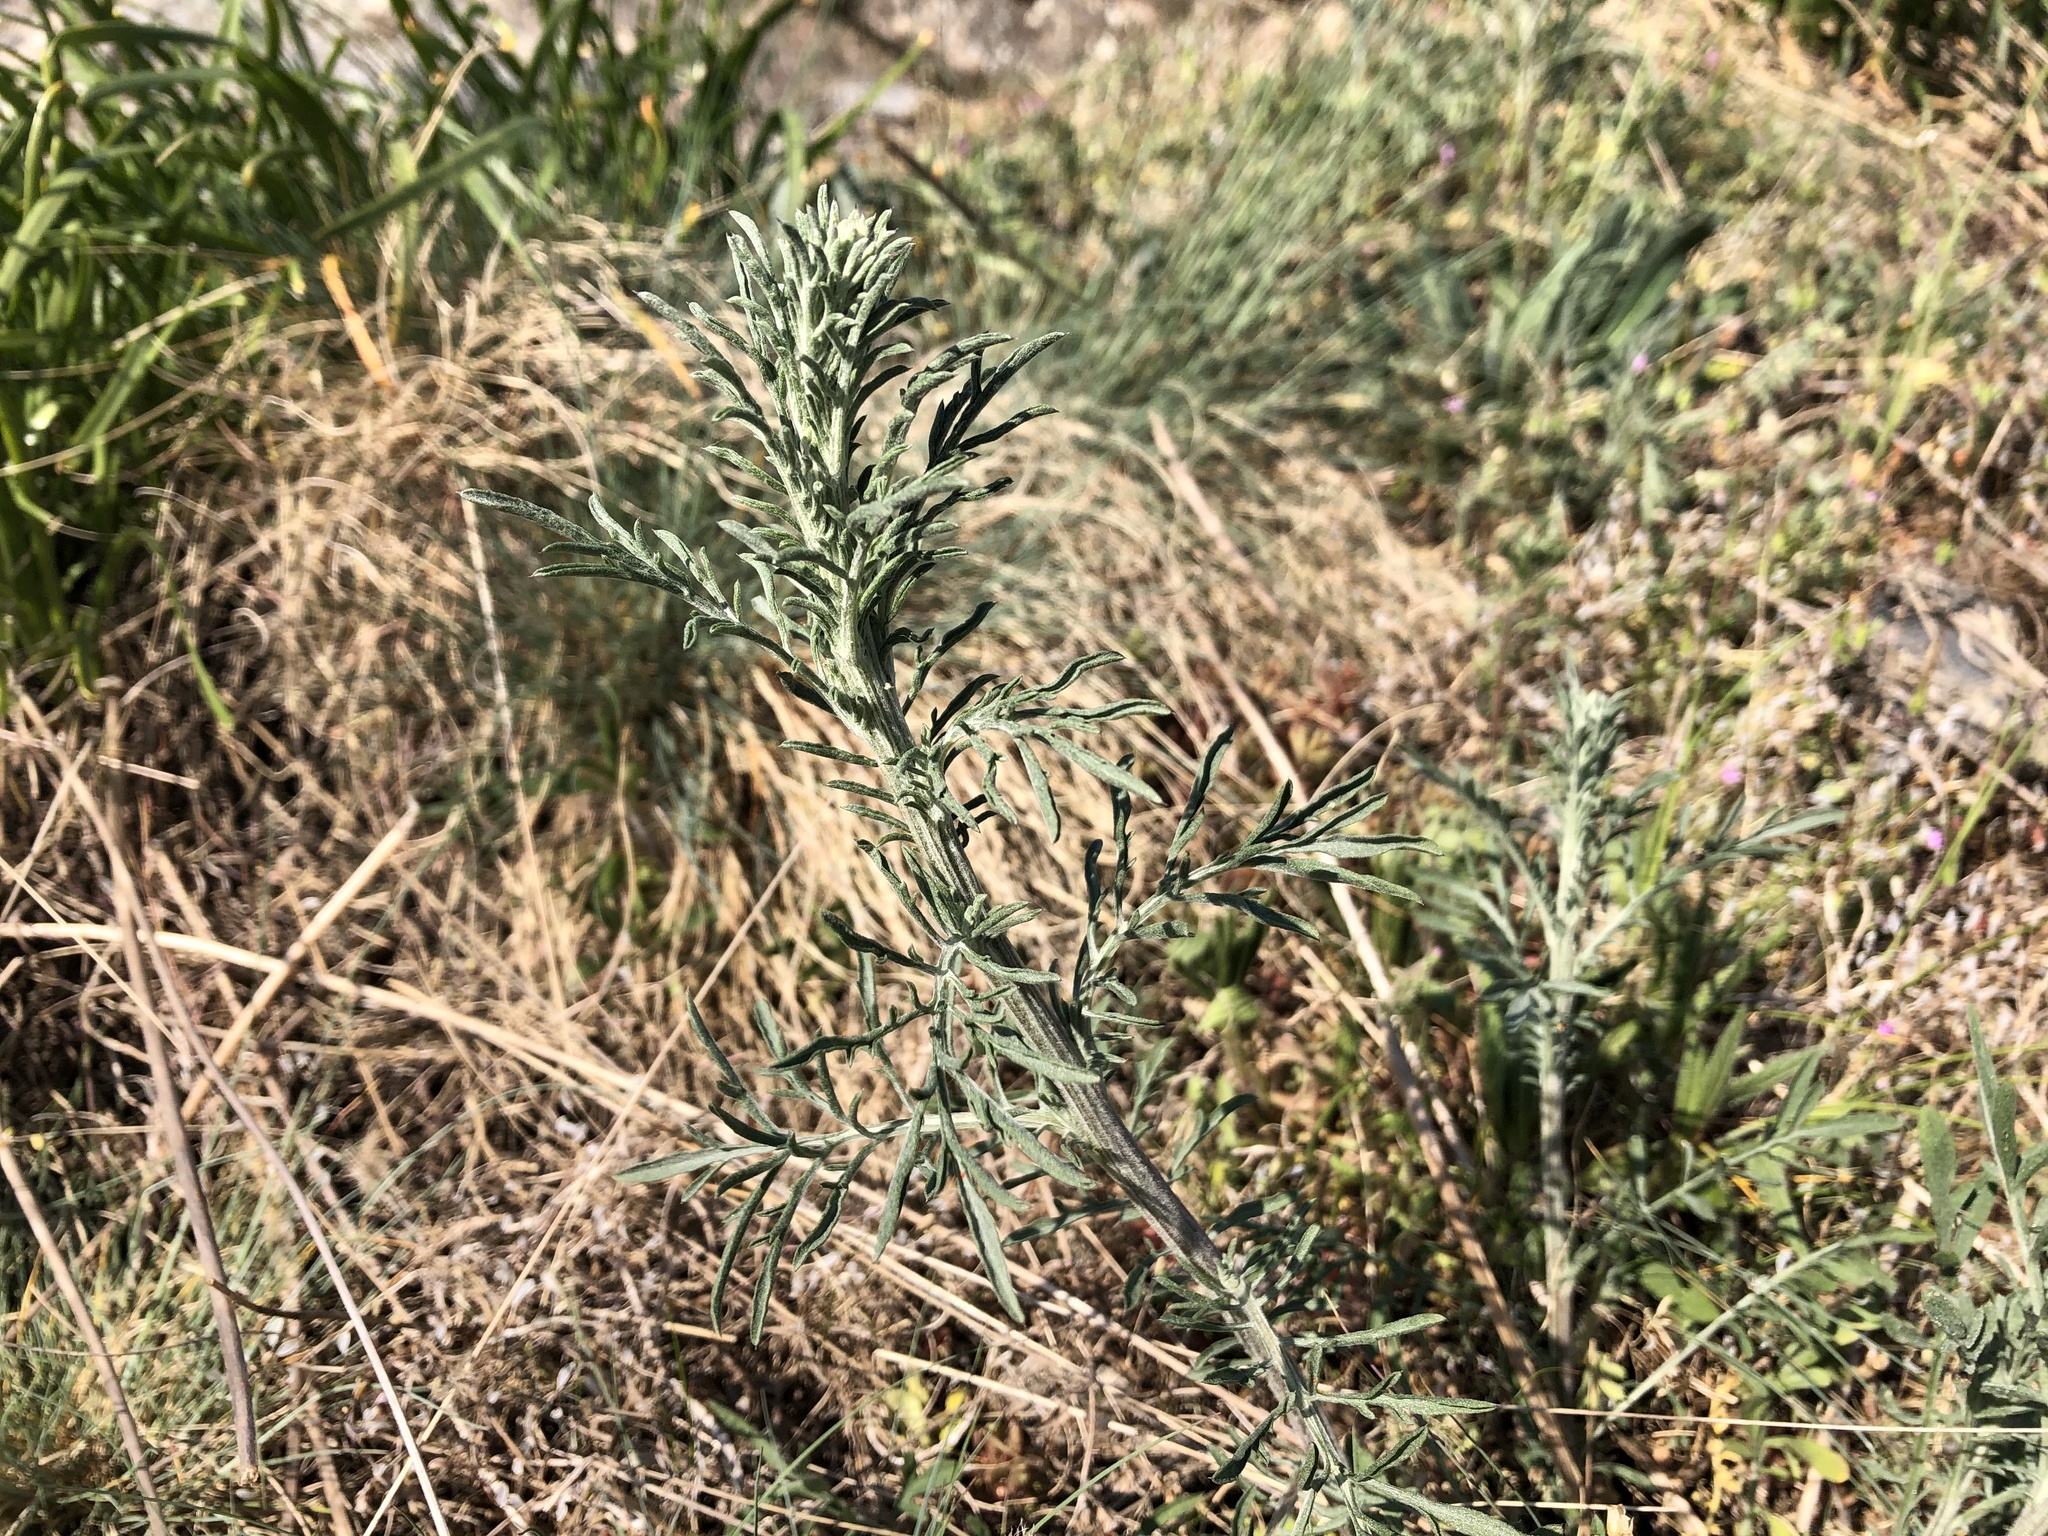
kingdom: Plantae
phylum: Tracheophyta
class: Magnoliopsida
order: Asterales
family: Asteraceae
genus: Centaurea
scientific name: Centaurea stoebe
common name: Spotted knapweed
